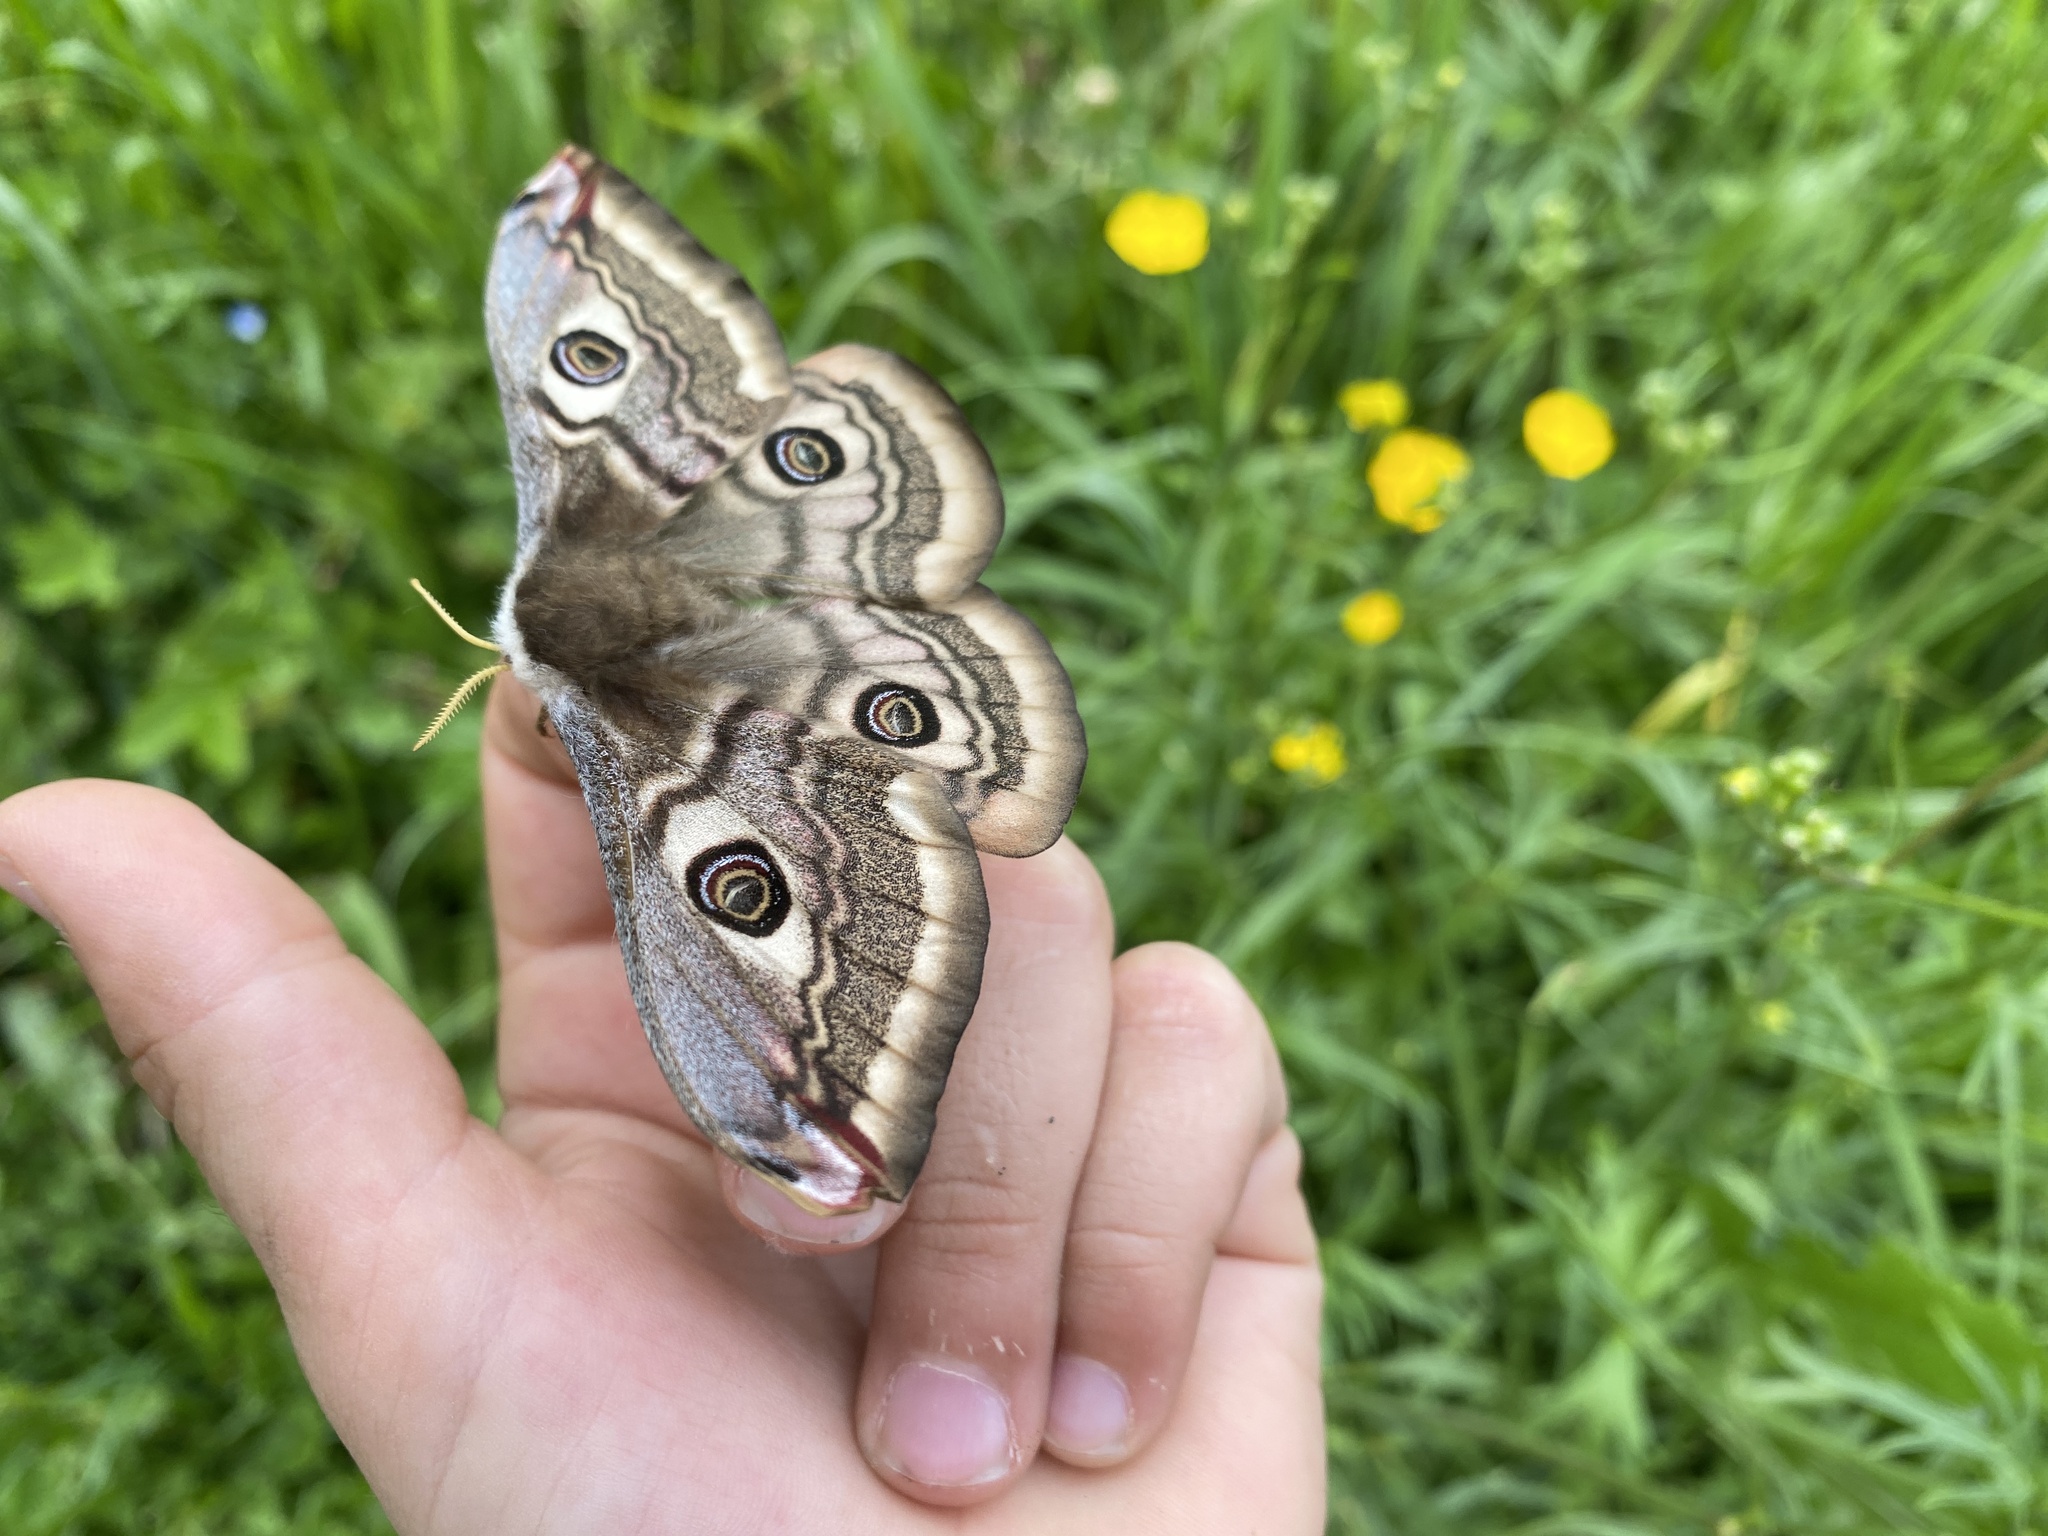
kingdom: Animalia
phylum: Arthropoda
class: Insecta
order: Lepidoptera
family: Saturniidae
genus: Saturnia
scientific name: Saturnia pavoniella
